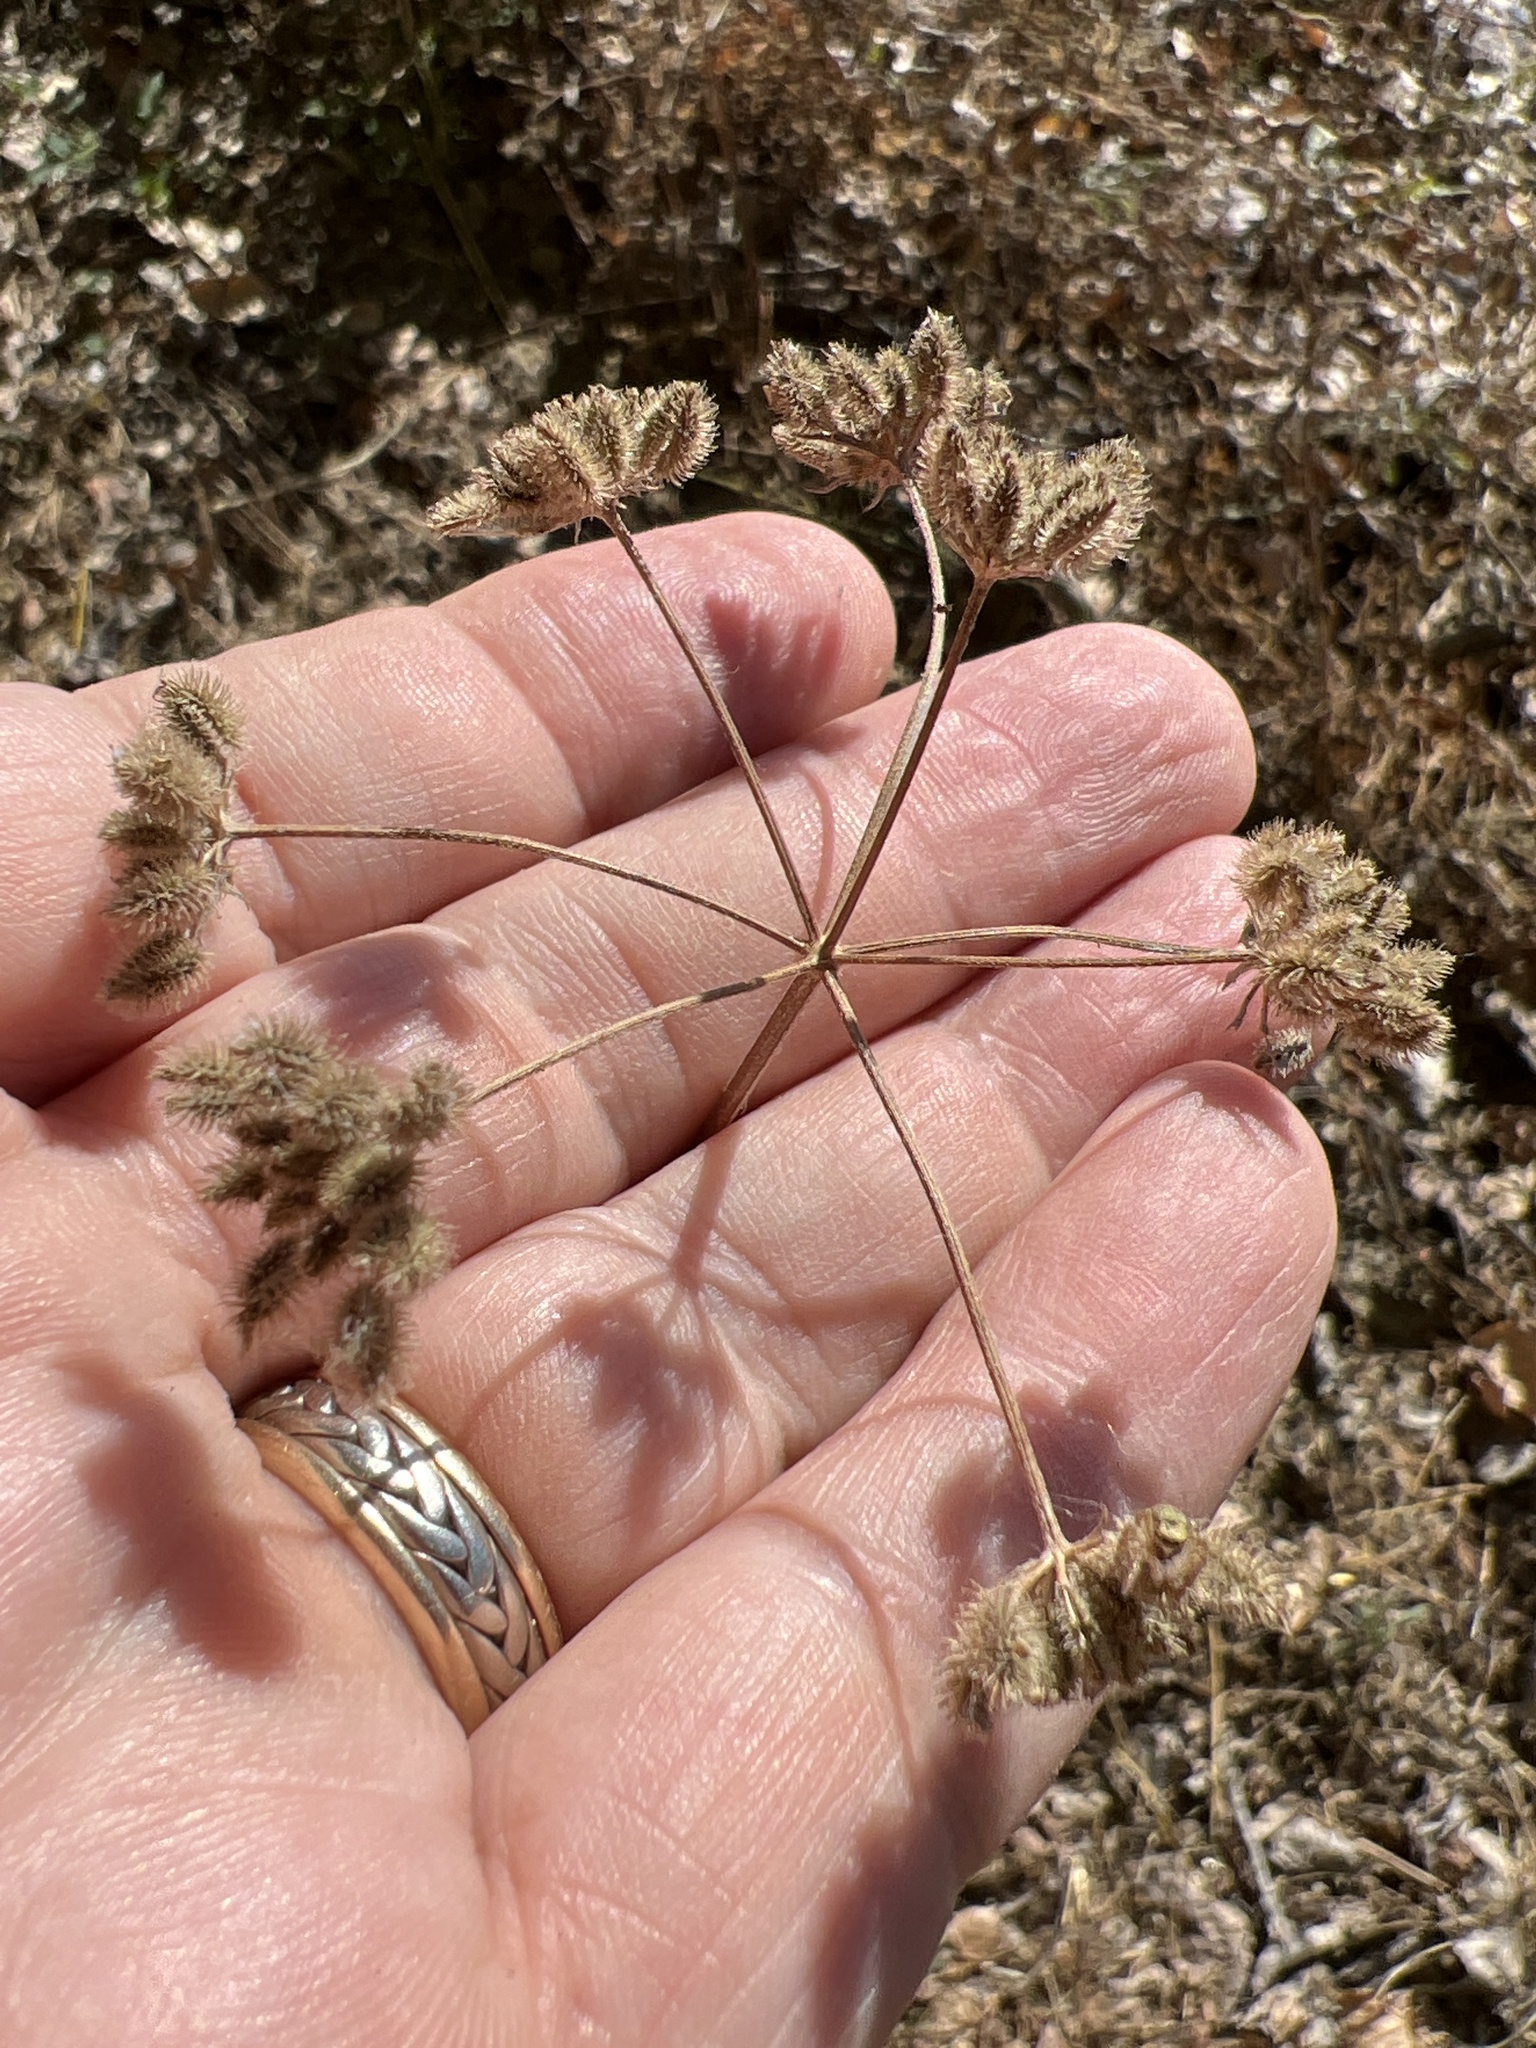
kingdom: Plantae
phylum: Tracheophyta
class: Magnoliopsida
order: Apiales
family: Apiaceae
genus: Torilis
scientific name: Torilis arvensis
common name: Spreading hedge-parsley
